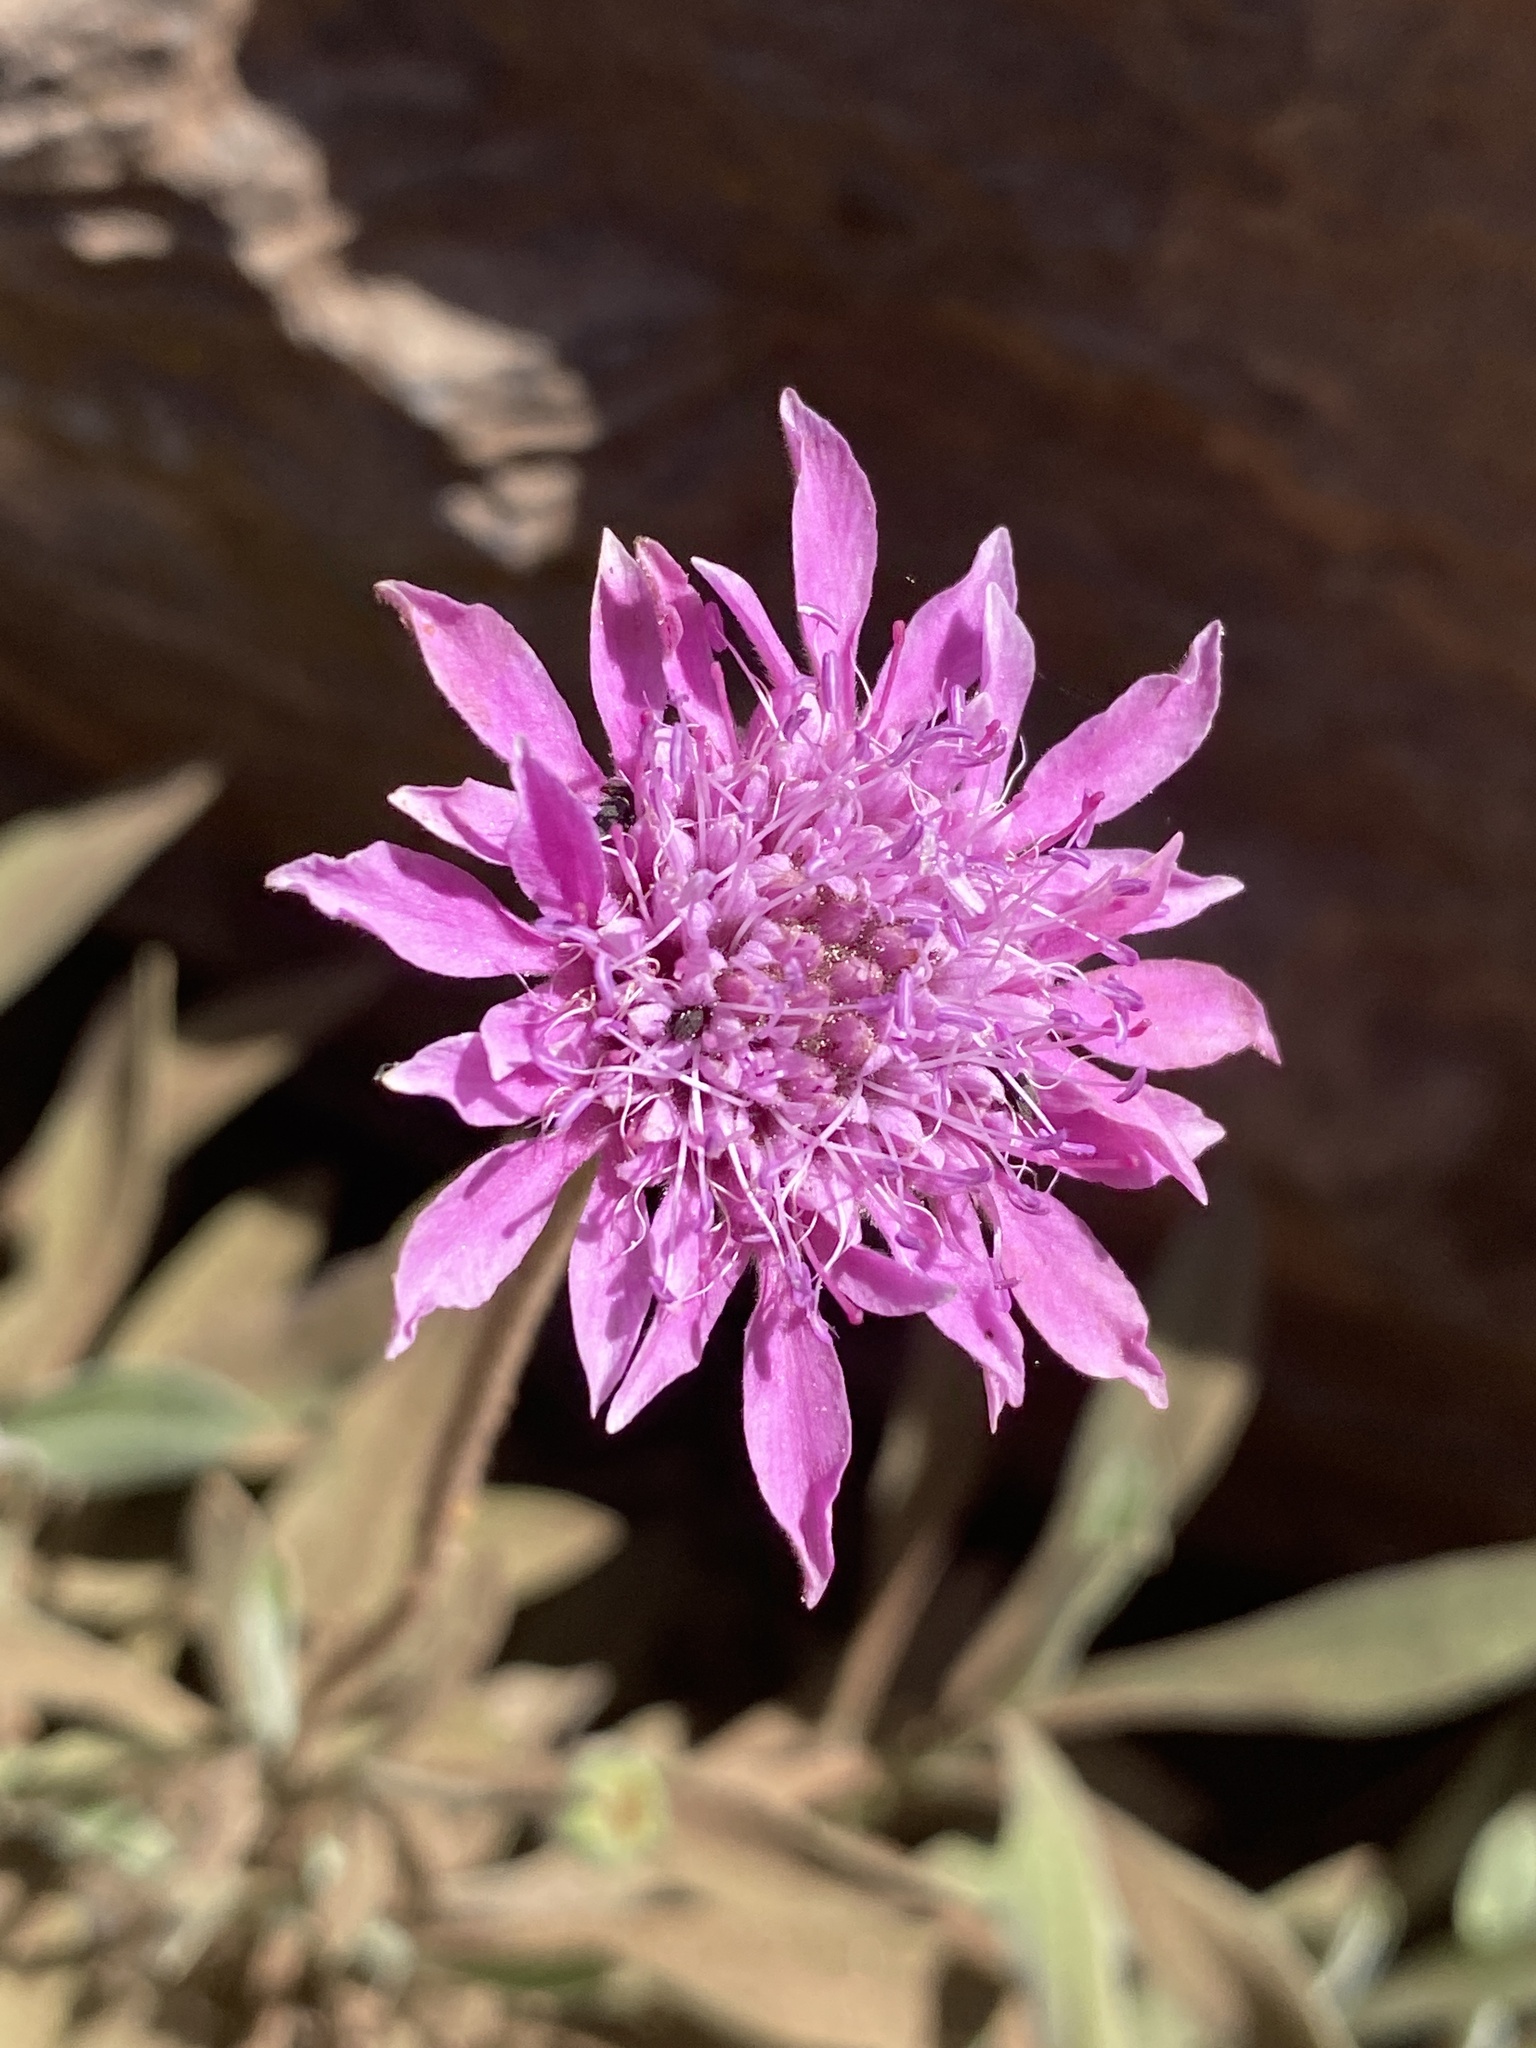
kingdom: Plantae
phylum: Tracheophyta
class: Magnoliopsida
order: Dipsacales
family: Caprifoliaceae
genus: Pterocephalus
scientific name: Pterocephalus porphyranthus
